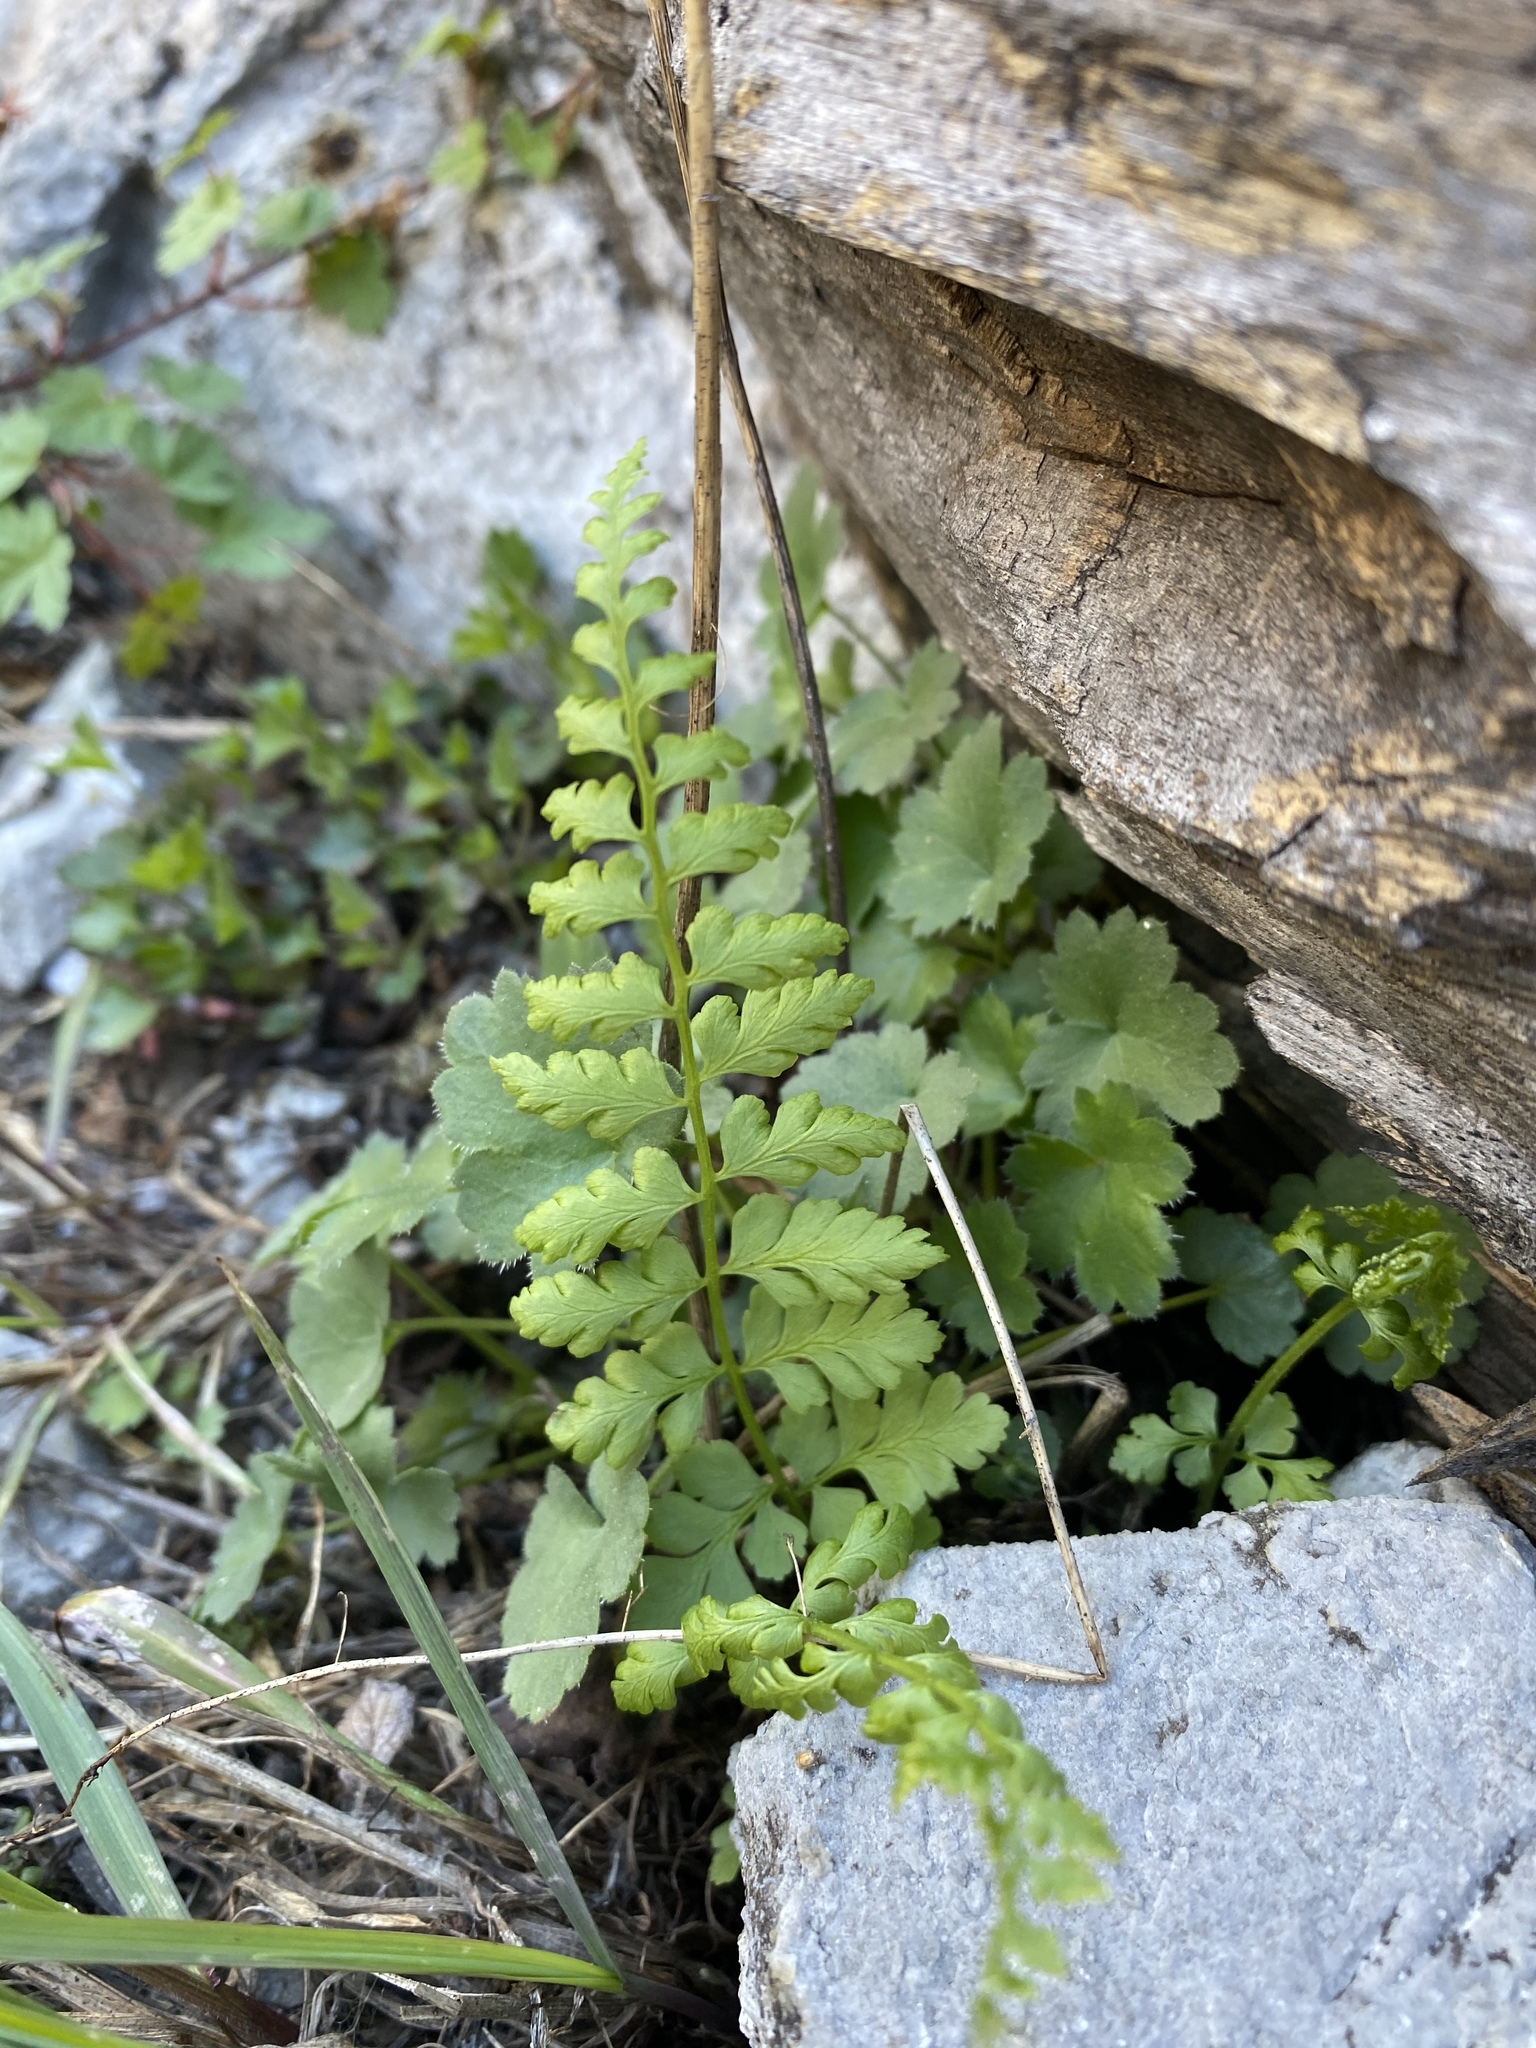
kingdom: Plantae
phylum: Tracheophyta
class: Polypodiopsida
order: Polypodiales
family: Cystopteridaceae
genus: Cystopteris
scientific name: Cystopteris fragilis
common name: Brittle bladder fern
